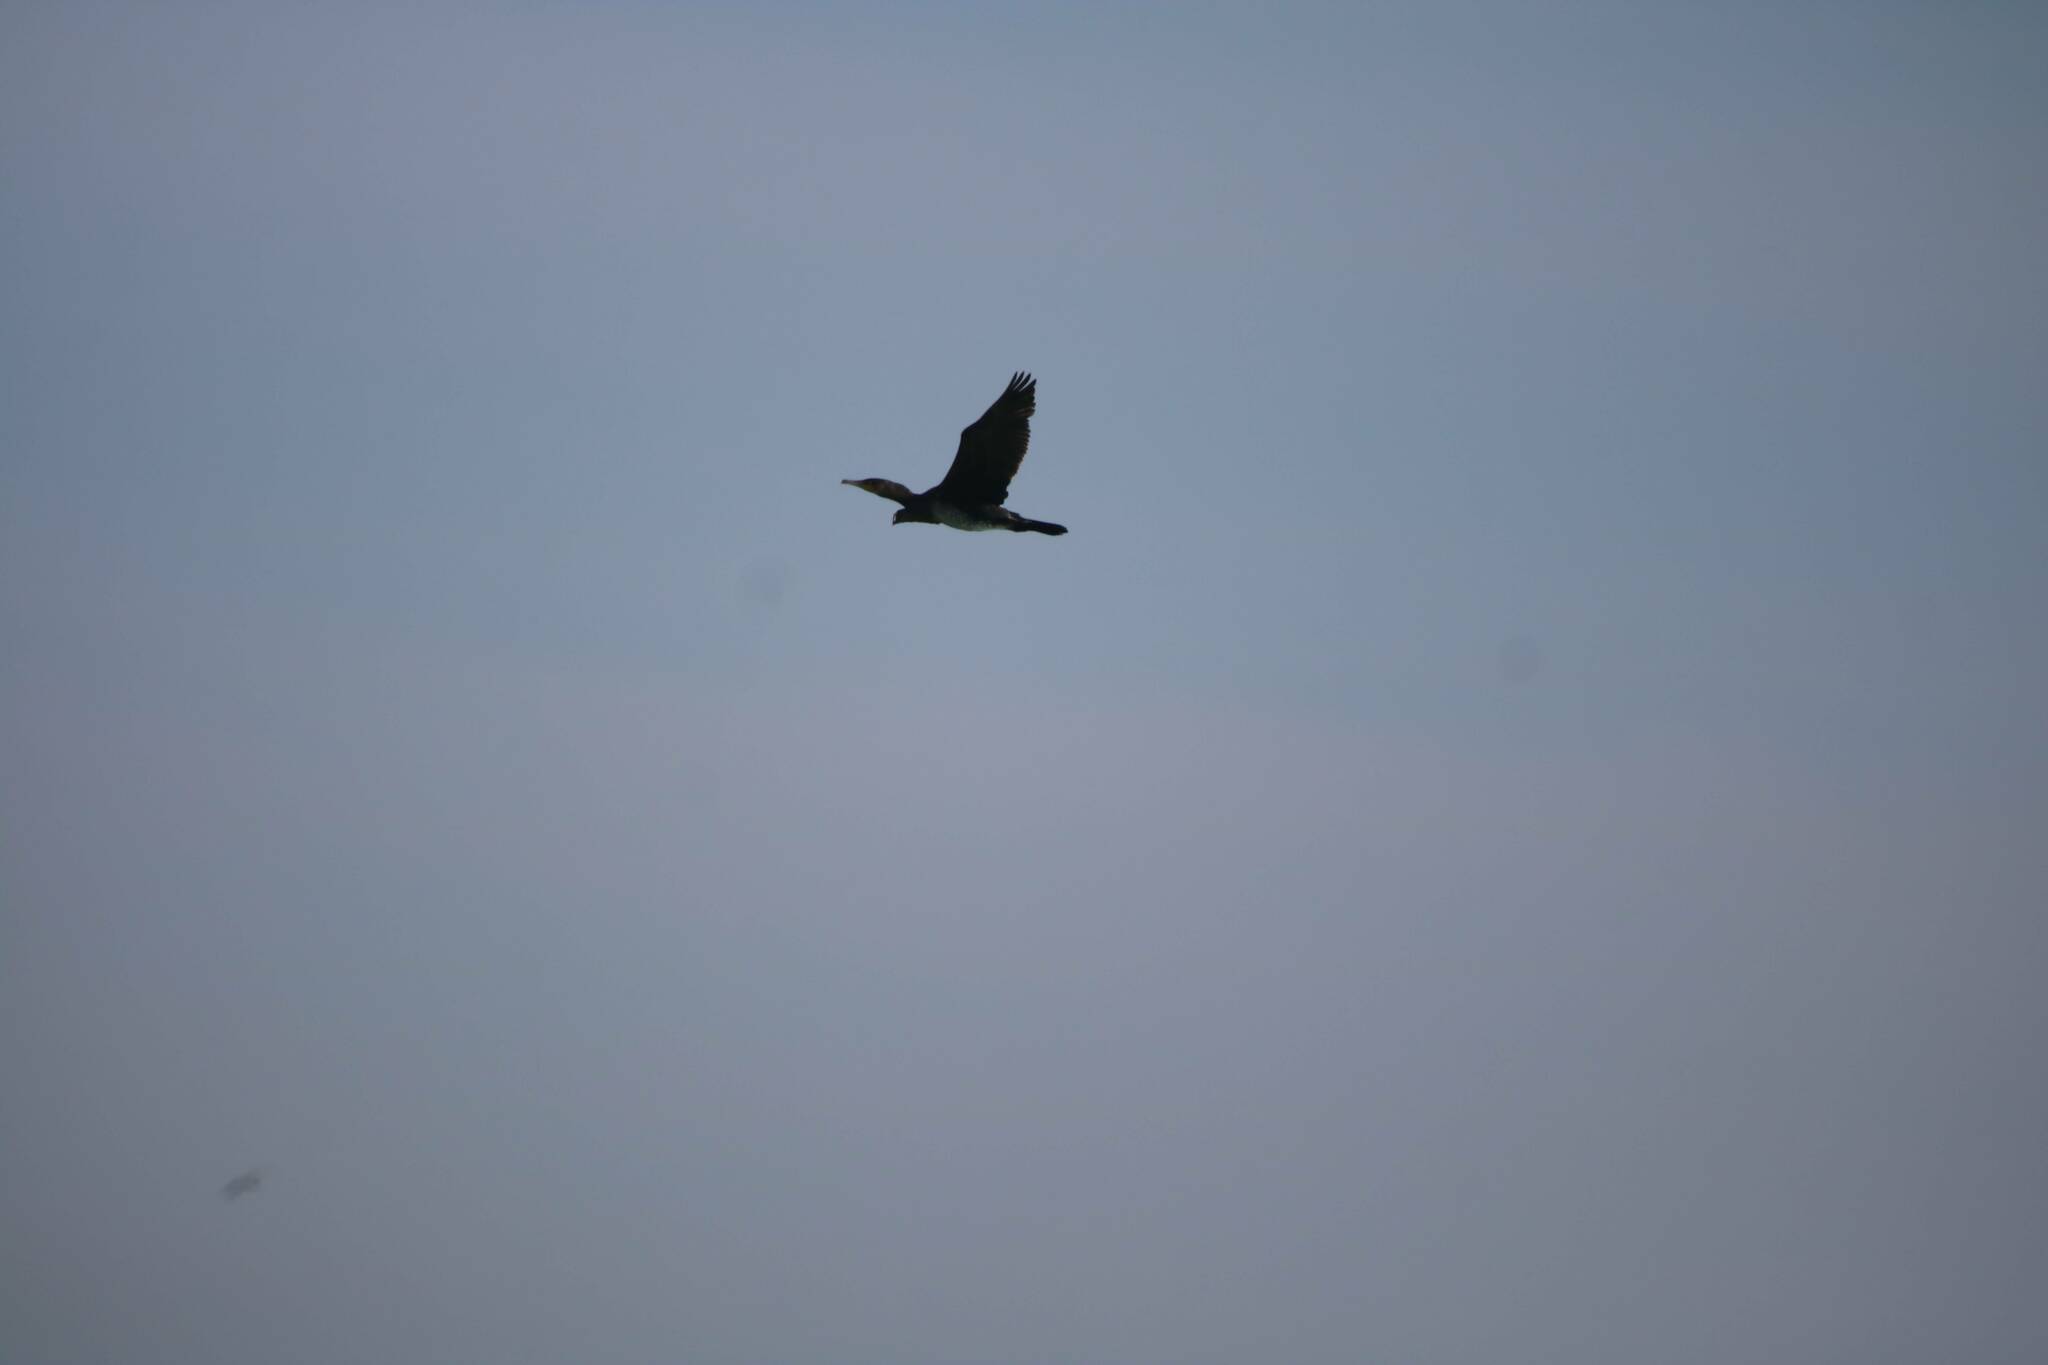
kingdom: Animalia
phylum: Chordata
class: Aves
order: Suliformes
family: Phalacrocoracidae
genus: Phalacrocorax
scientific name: Phalacrocorax carbo
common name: Great cormorant
